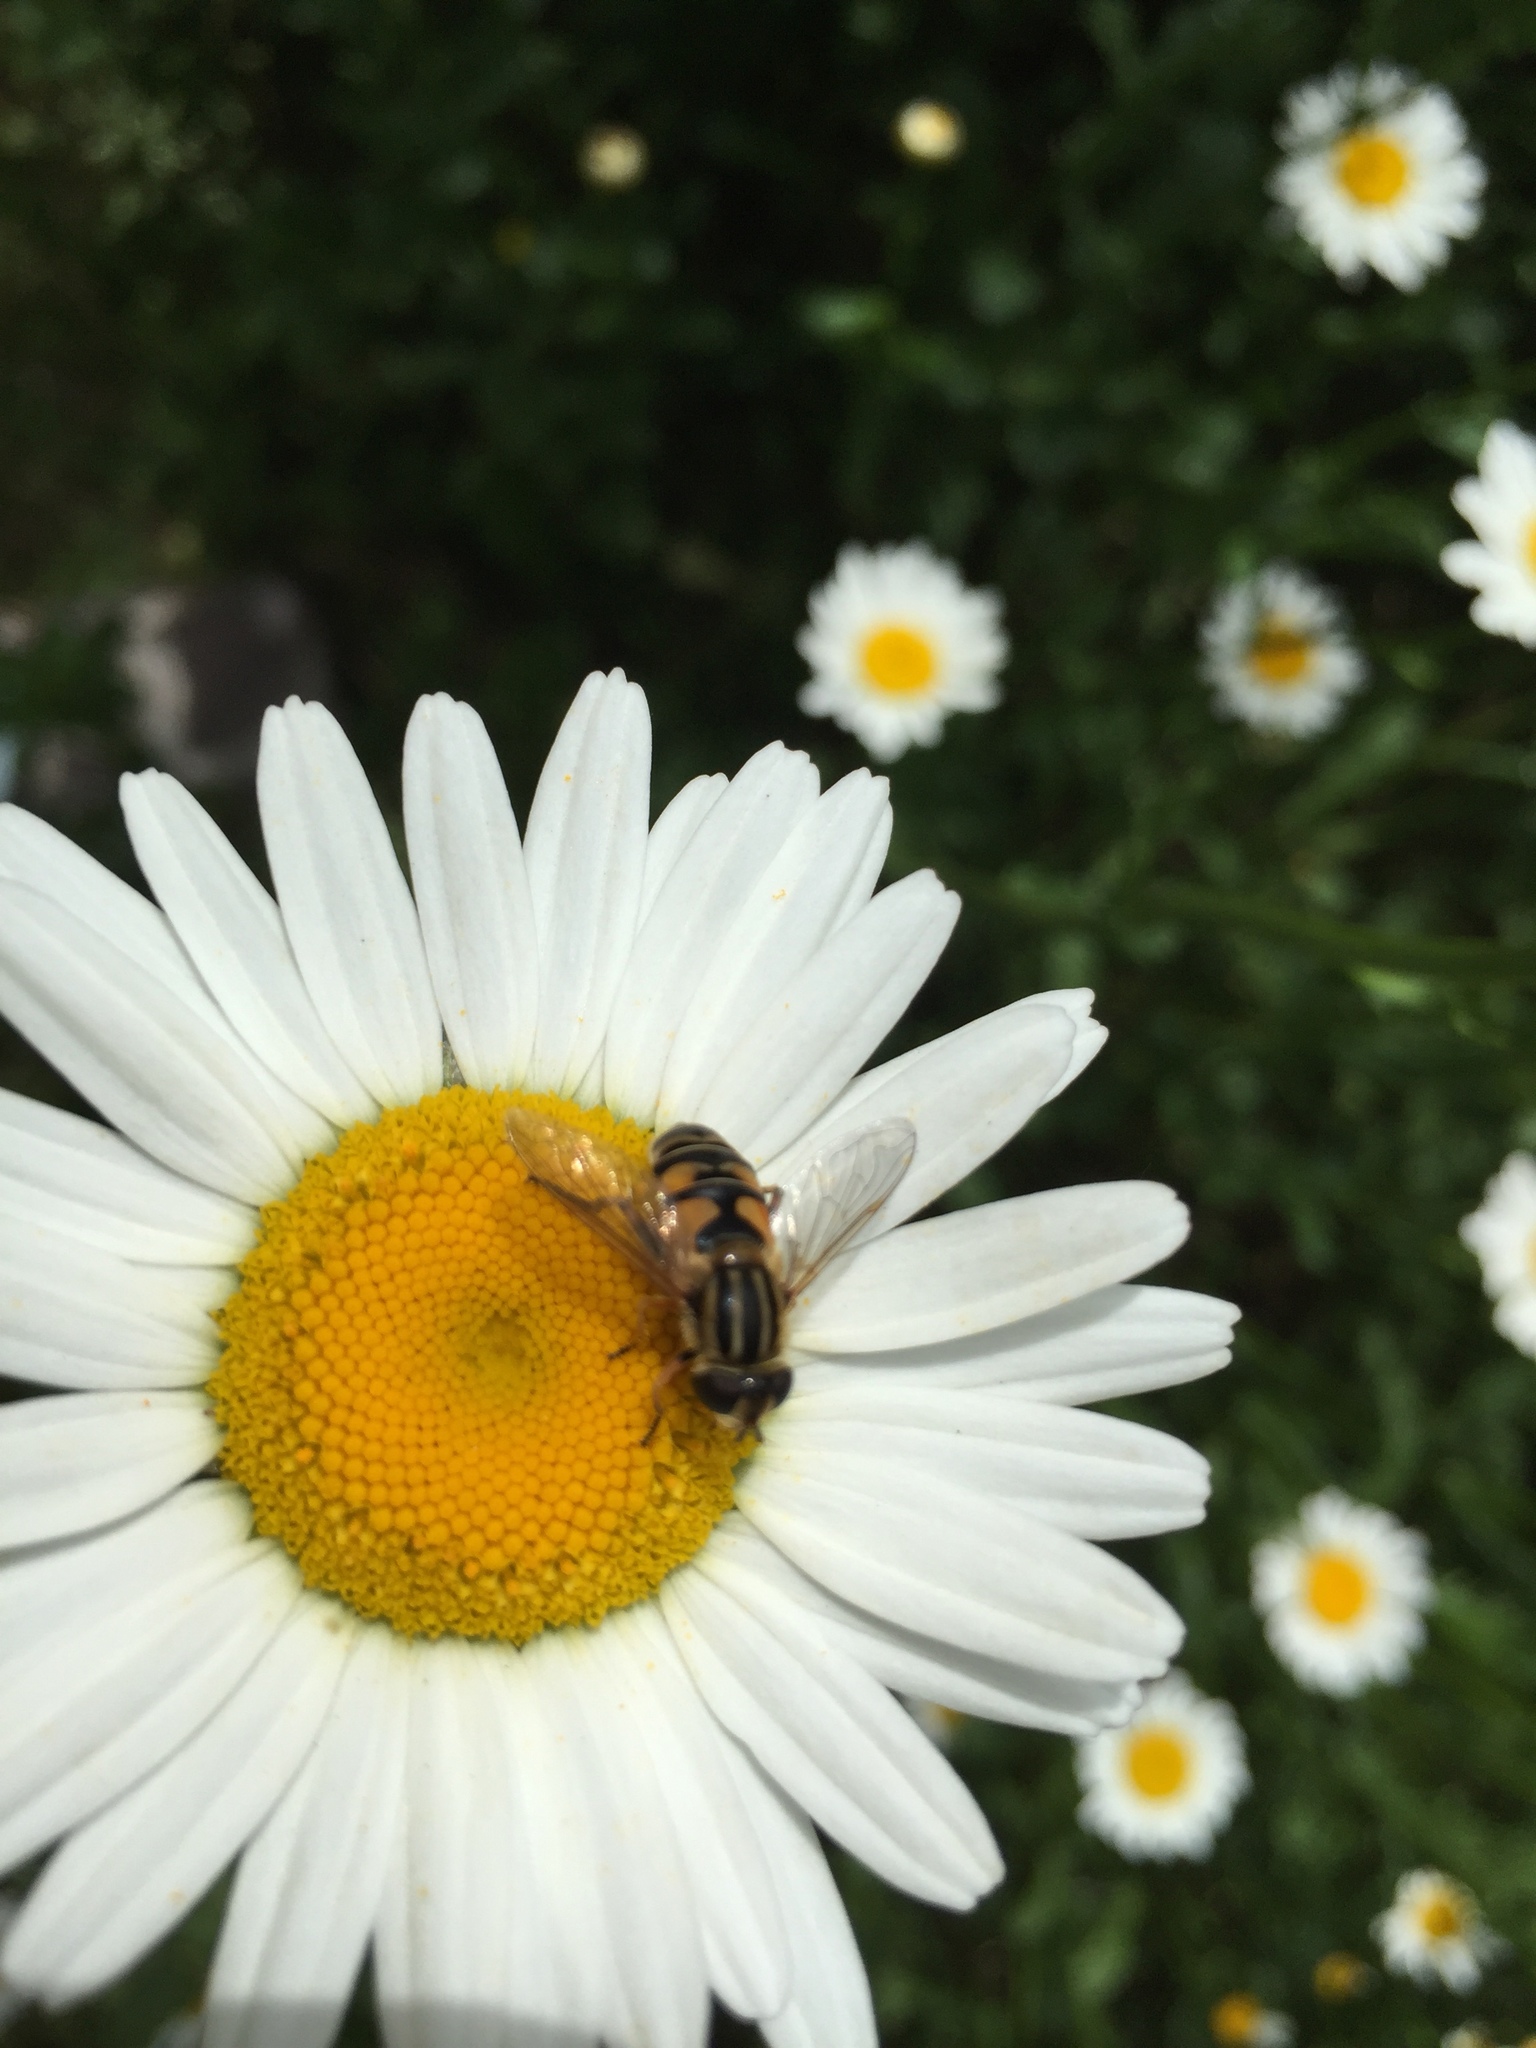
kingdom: Animalia
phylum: Arthropoda
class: Insecta
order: Diptera
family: Syrphidae
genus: Helophilus
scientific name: Helophilus fasciatus
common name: Narrow-headed marsh fly
